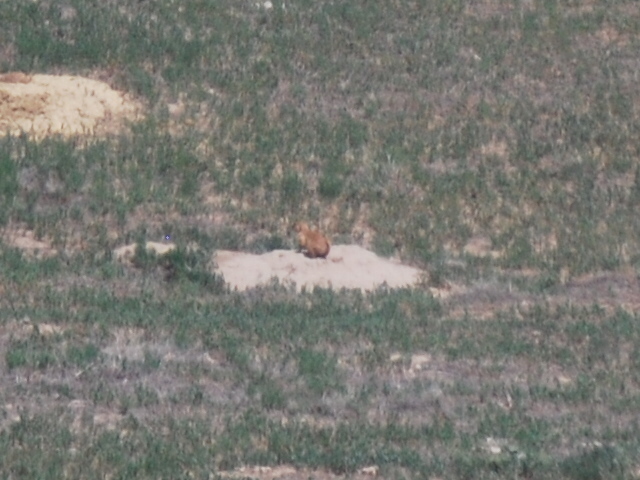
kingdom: Animalia
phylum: Chordata
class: Mammalia
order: Rodentia
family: Sciuridae
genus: Cynomys
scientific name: Cynomys ludovicianus
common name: Black-tailed prairie dog
